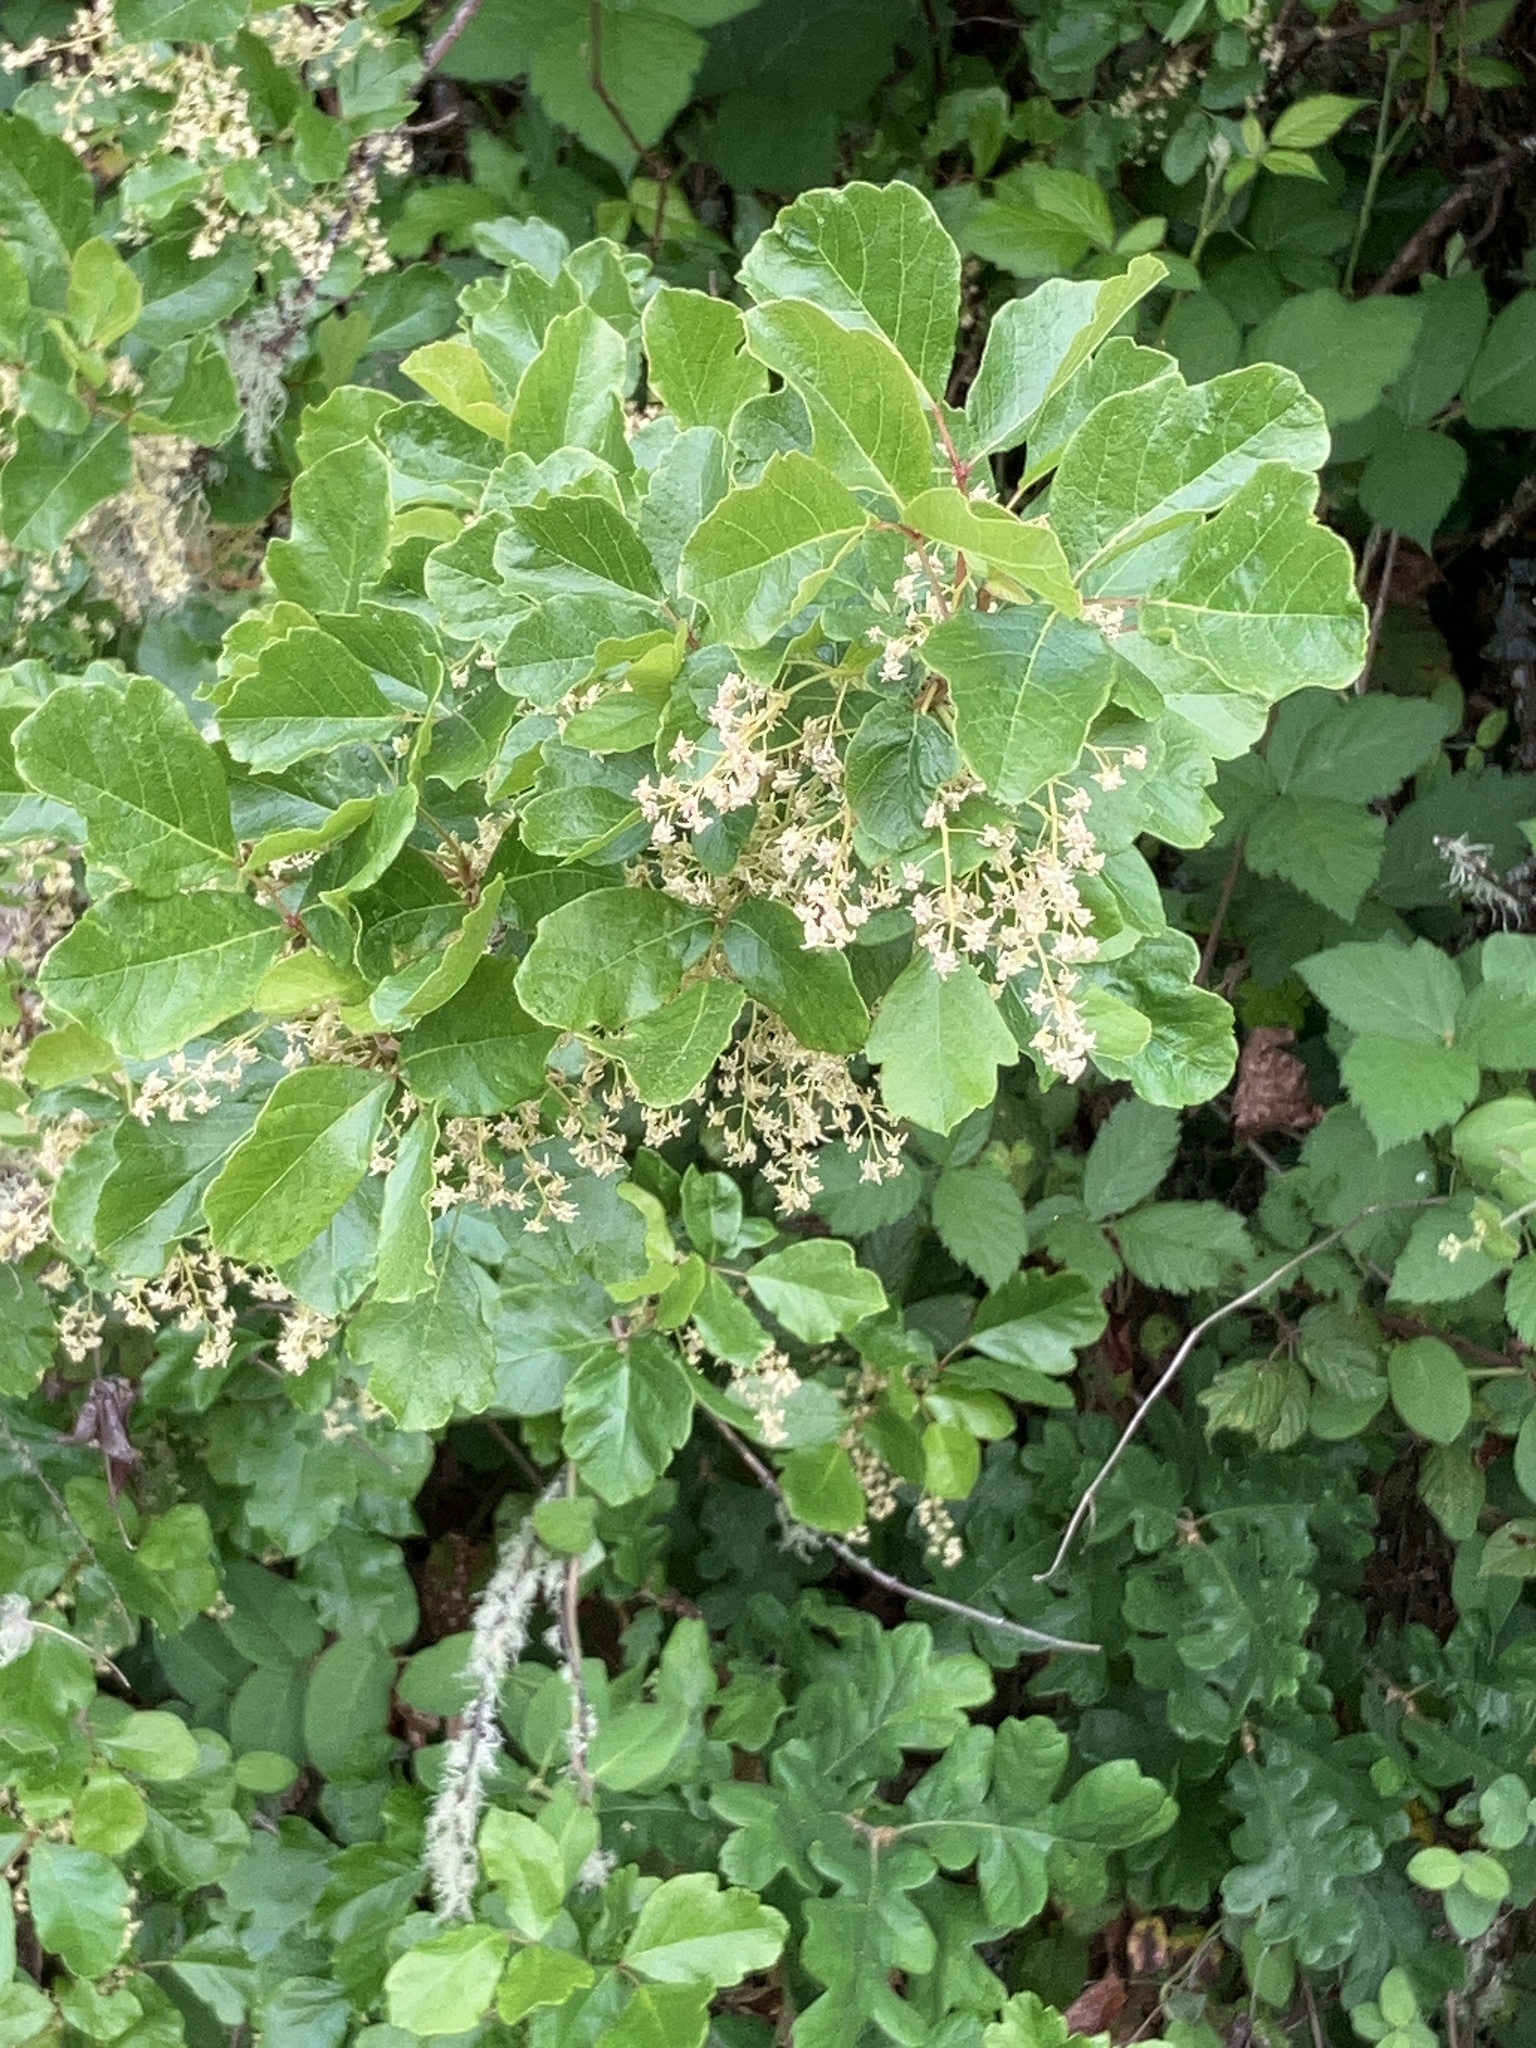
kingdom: Plantae
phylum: Tracheophyta
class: Magnoliopsida
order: Sapindales
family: Anacardiaceae
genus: Toxicodendron
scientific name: Toxicodendron diversilobum
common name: Pacific poison-oak
